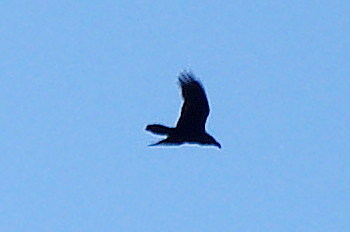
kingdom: Animalia
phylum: Chordata
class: Aves
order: Passeriformes
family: Corvidae
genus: Corvus
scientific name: Corvus corax
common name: Common raven
